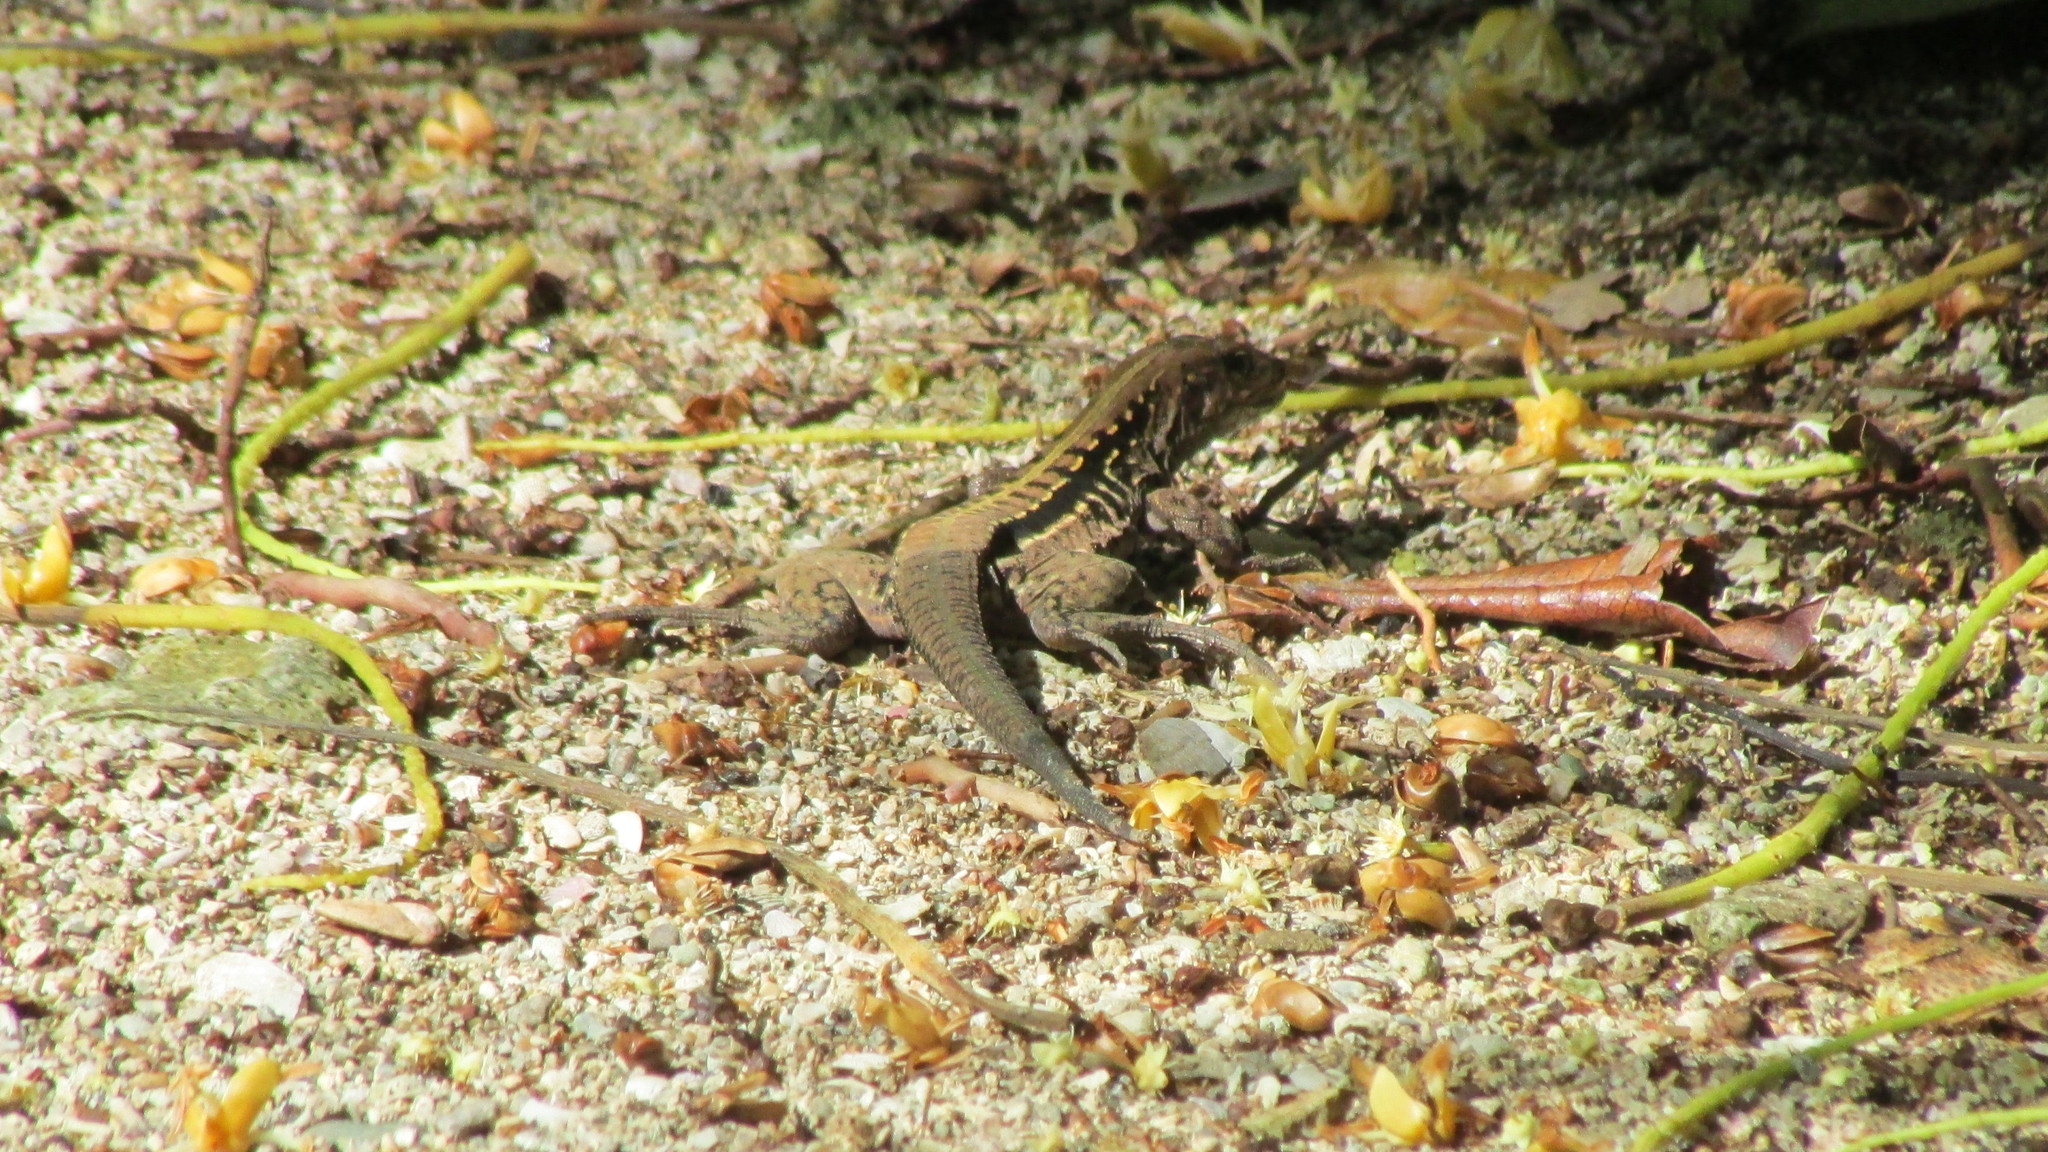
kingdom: Animalia
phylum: Chordata
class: Squamata
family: Teiidae
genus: Holcosus
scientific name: Holcosus festivus
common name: Middle american ameiva
